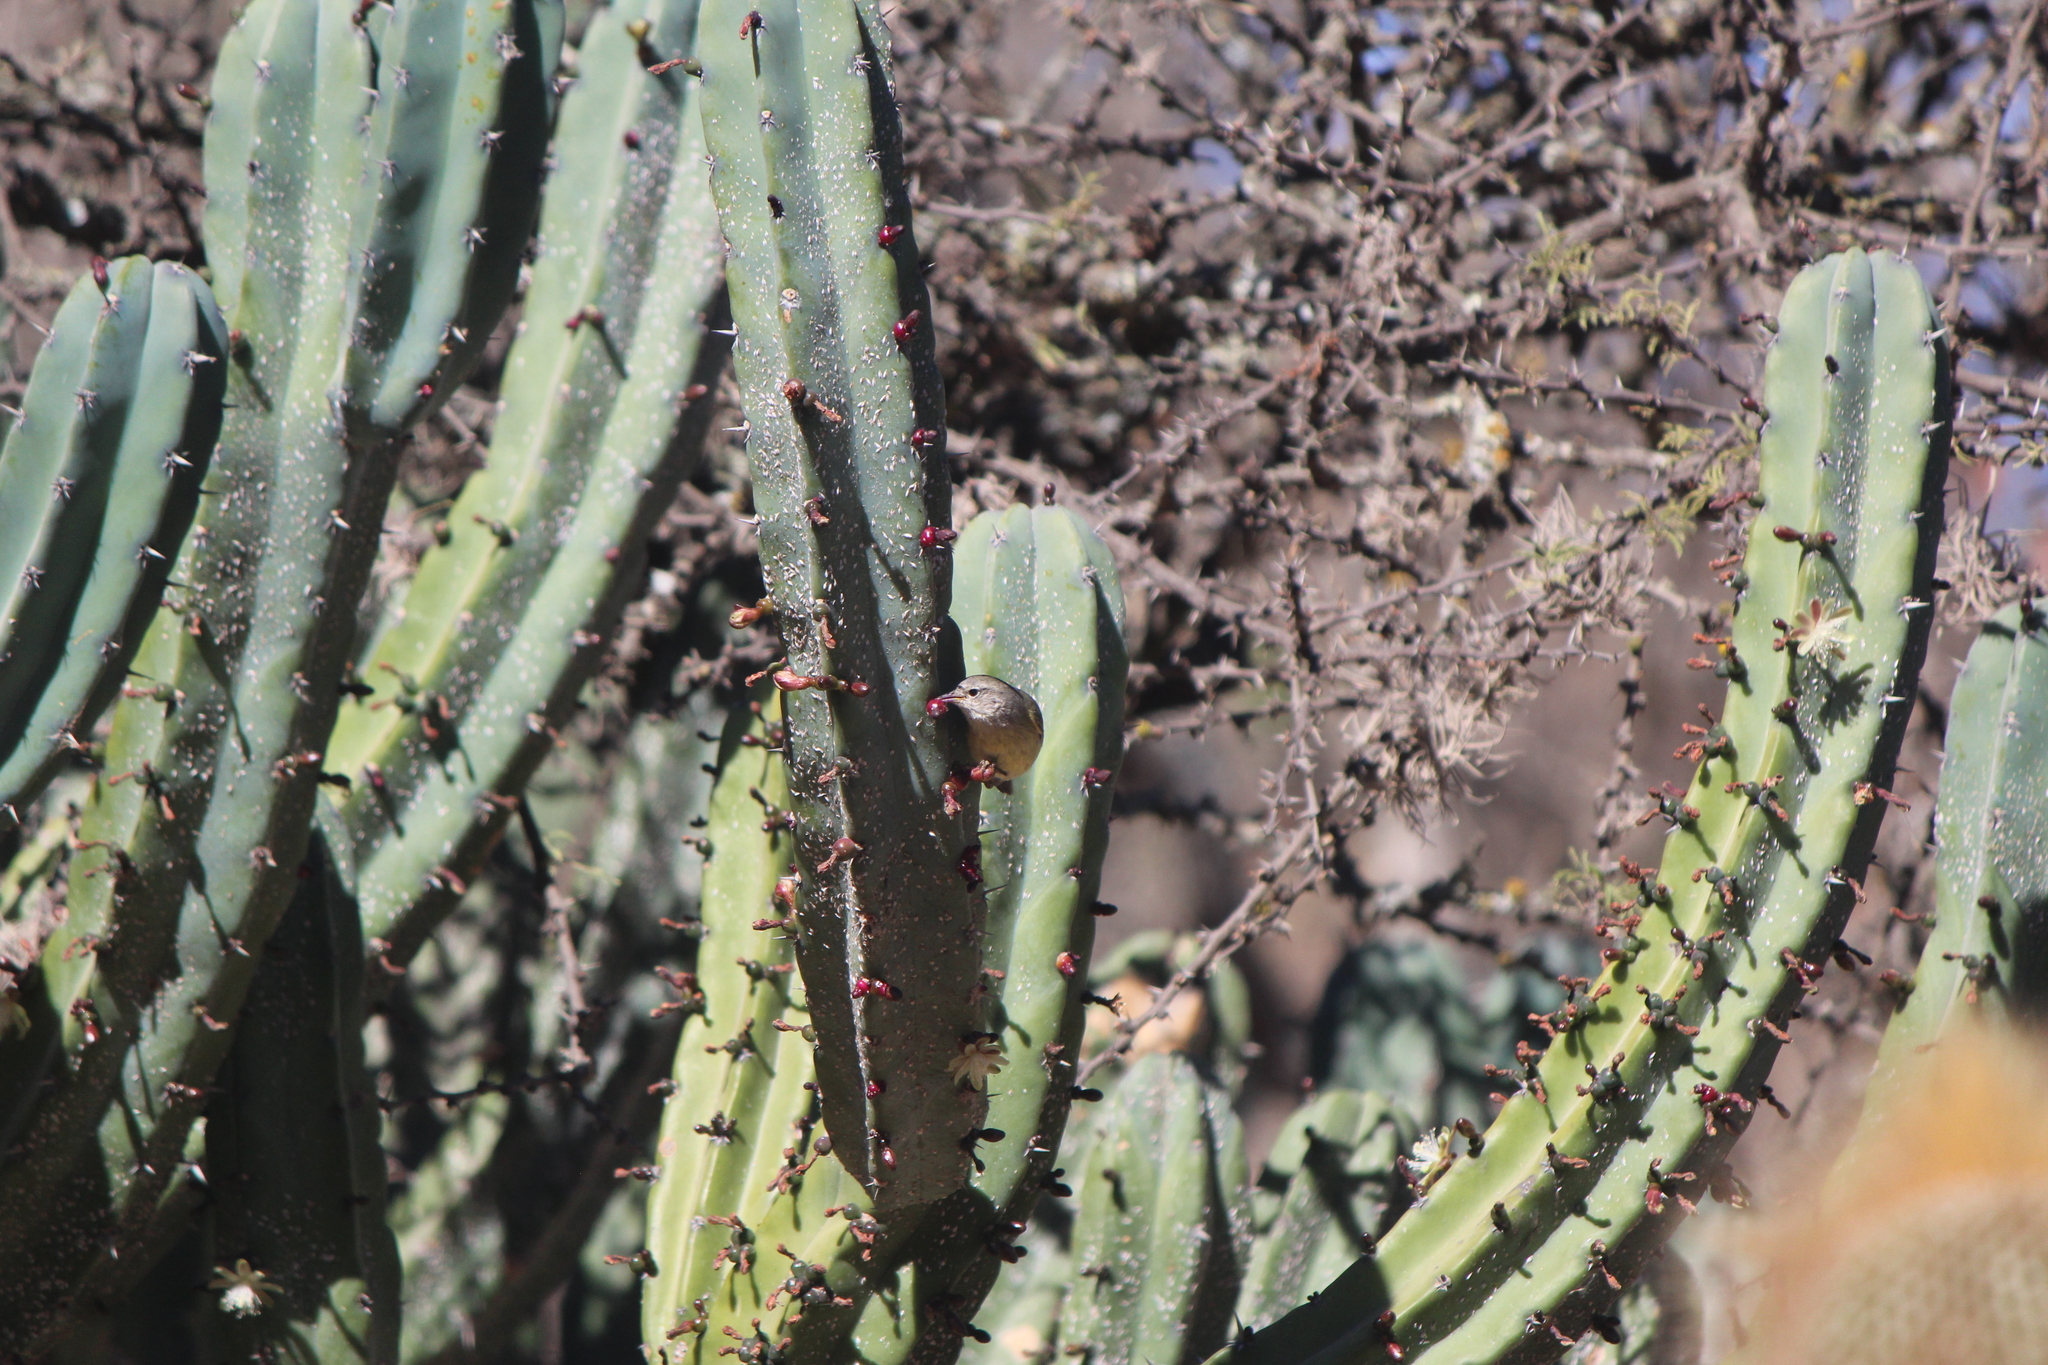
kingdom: Animalia
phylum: Chordata
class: Aves
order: Passeriformes
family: Parulidae
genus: Leiothlypis
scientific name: Leiothlypis celata
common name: Orange-crowned warbler
